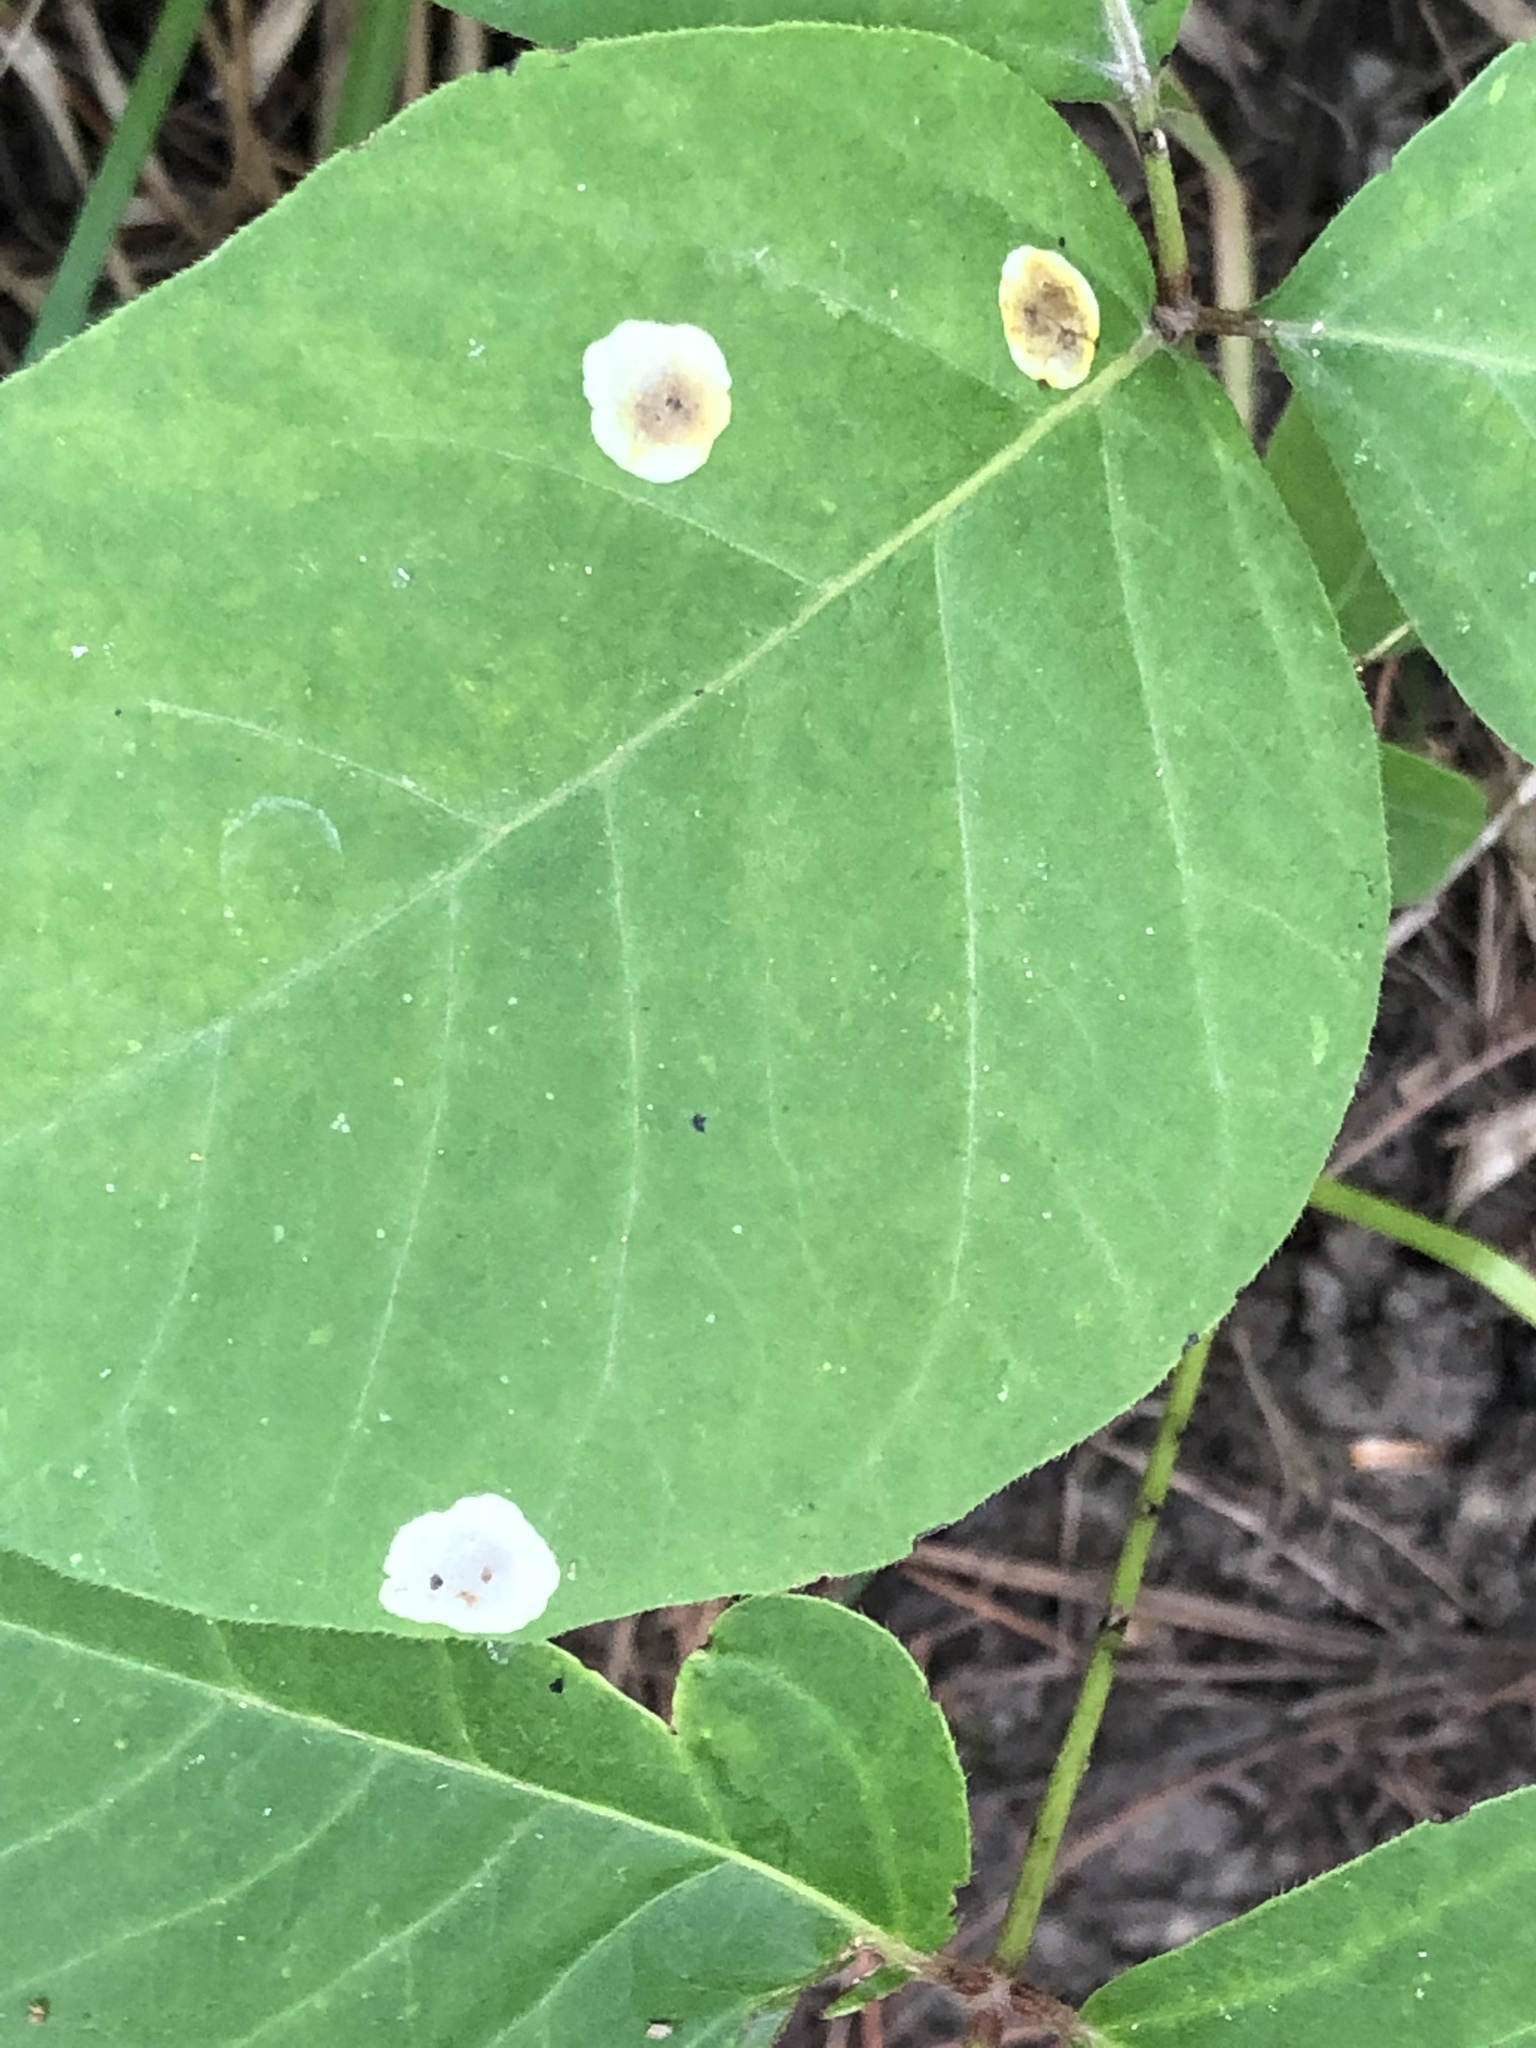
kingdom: Animalia
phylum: Arthropoda
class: Insecta
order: Lepidoptera
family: Gracillariidae
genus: Cameraria
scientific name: Cameraria guttifinitella
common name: Poison ivy leaf-miner moth
